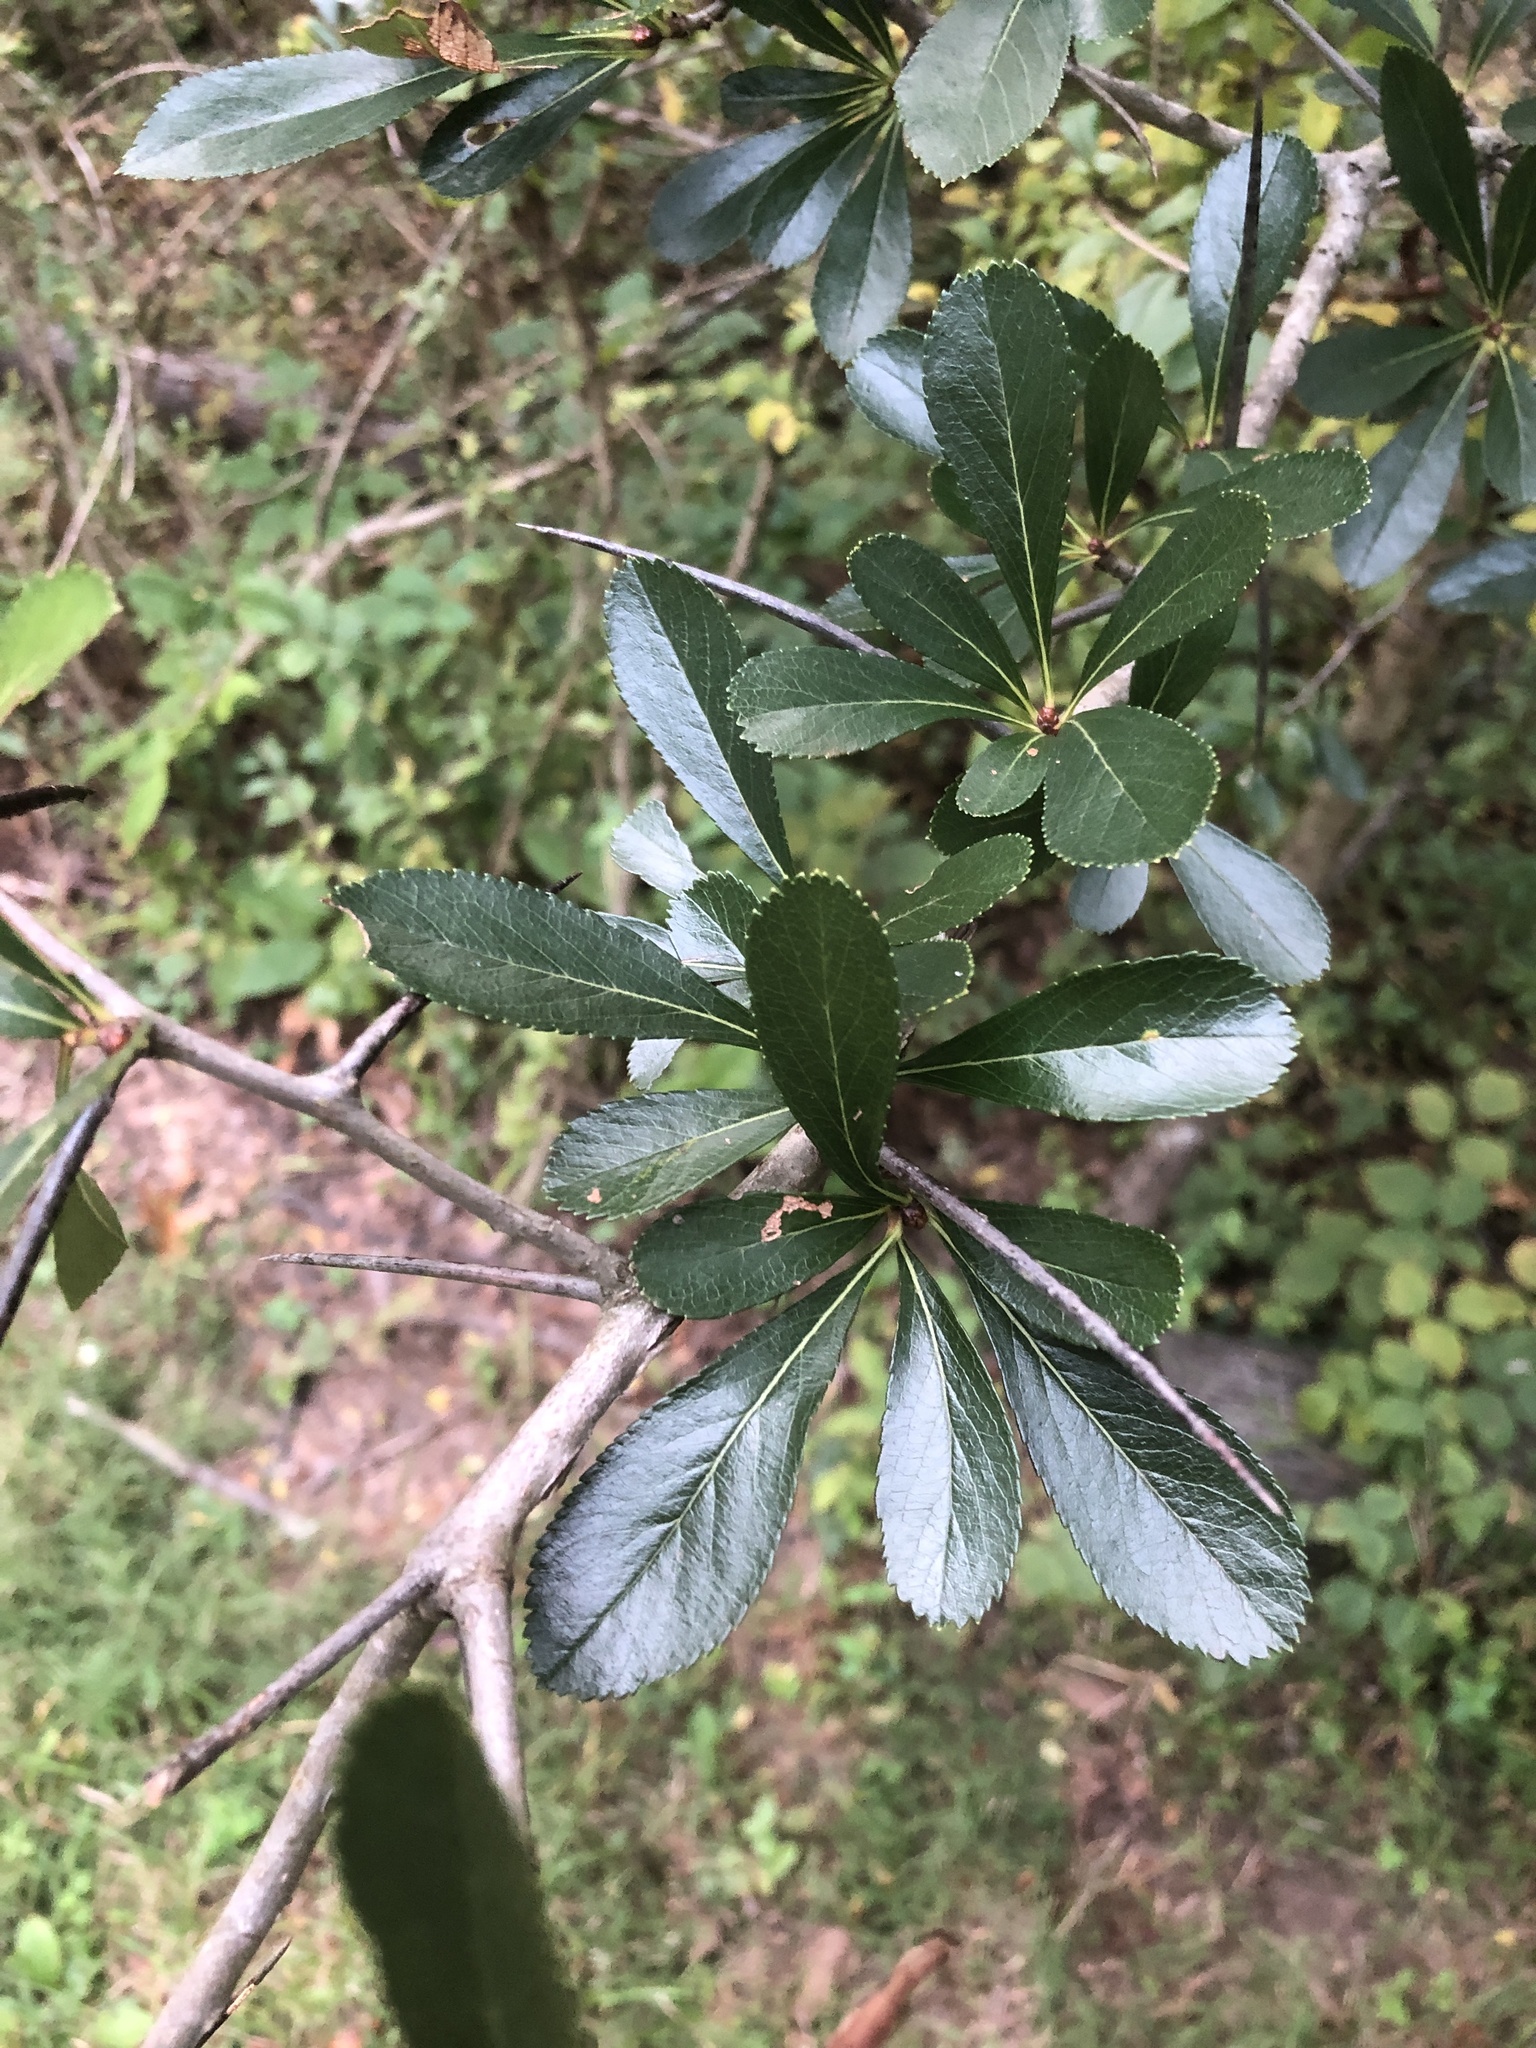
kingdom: Plantae
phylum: Tracheophyta
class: Magnoliopsida
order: Rosales
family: Rosaceae
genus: Crataegus
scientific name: Crataegus crus-galli
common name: Cockspurthorn
